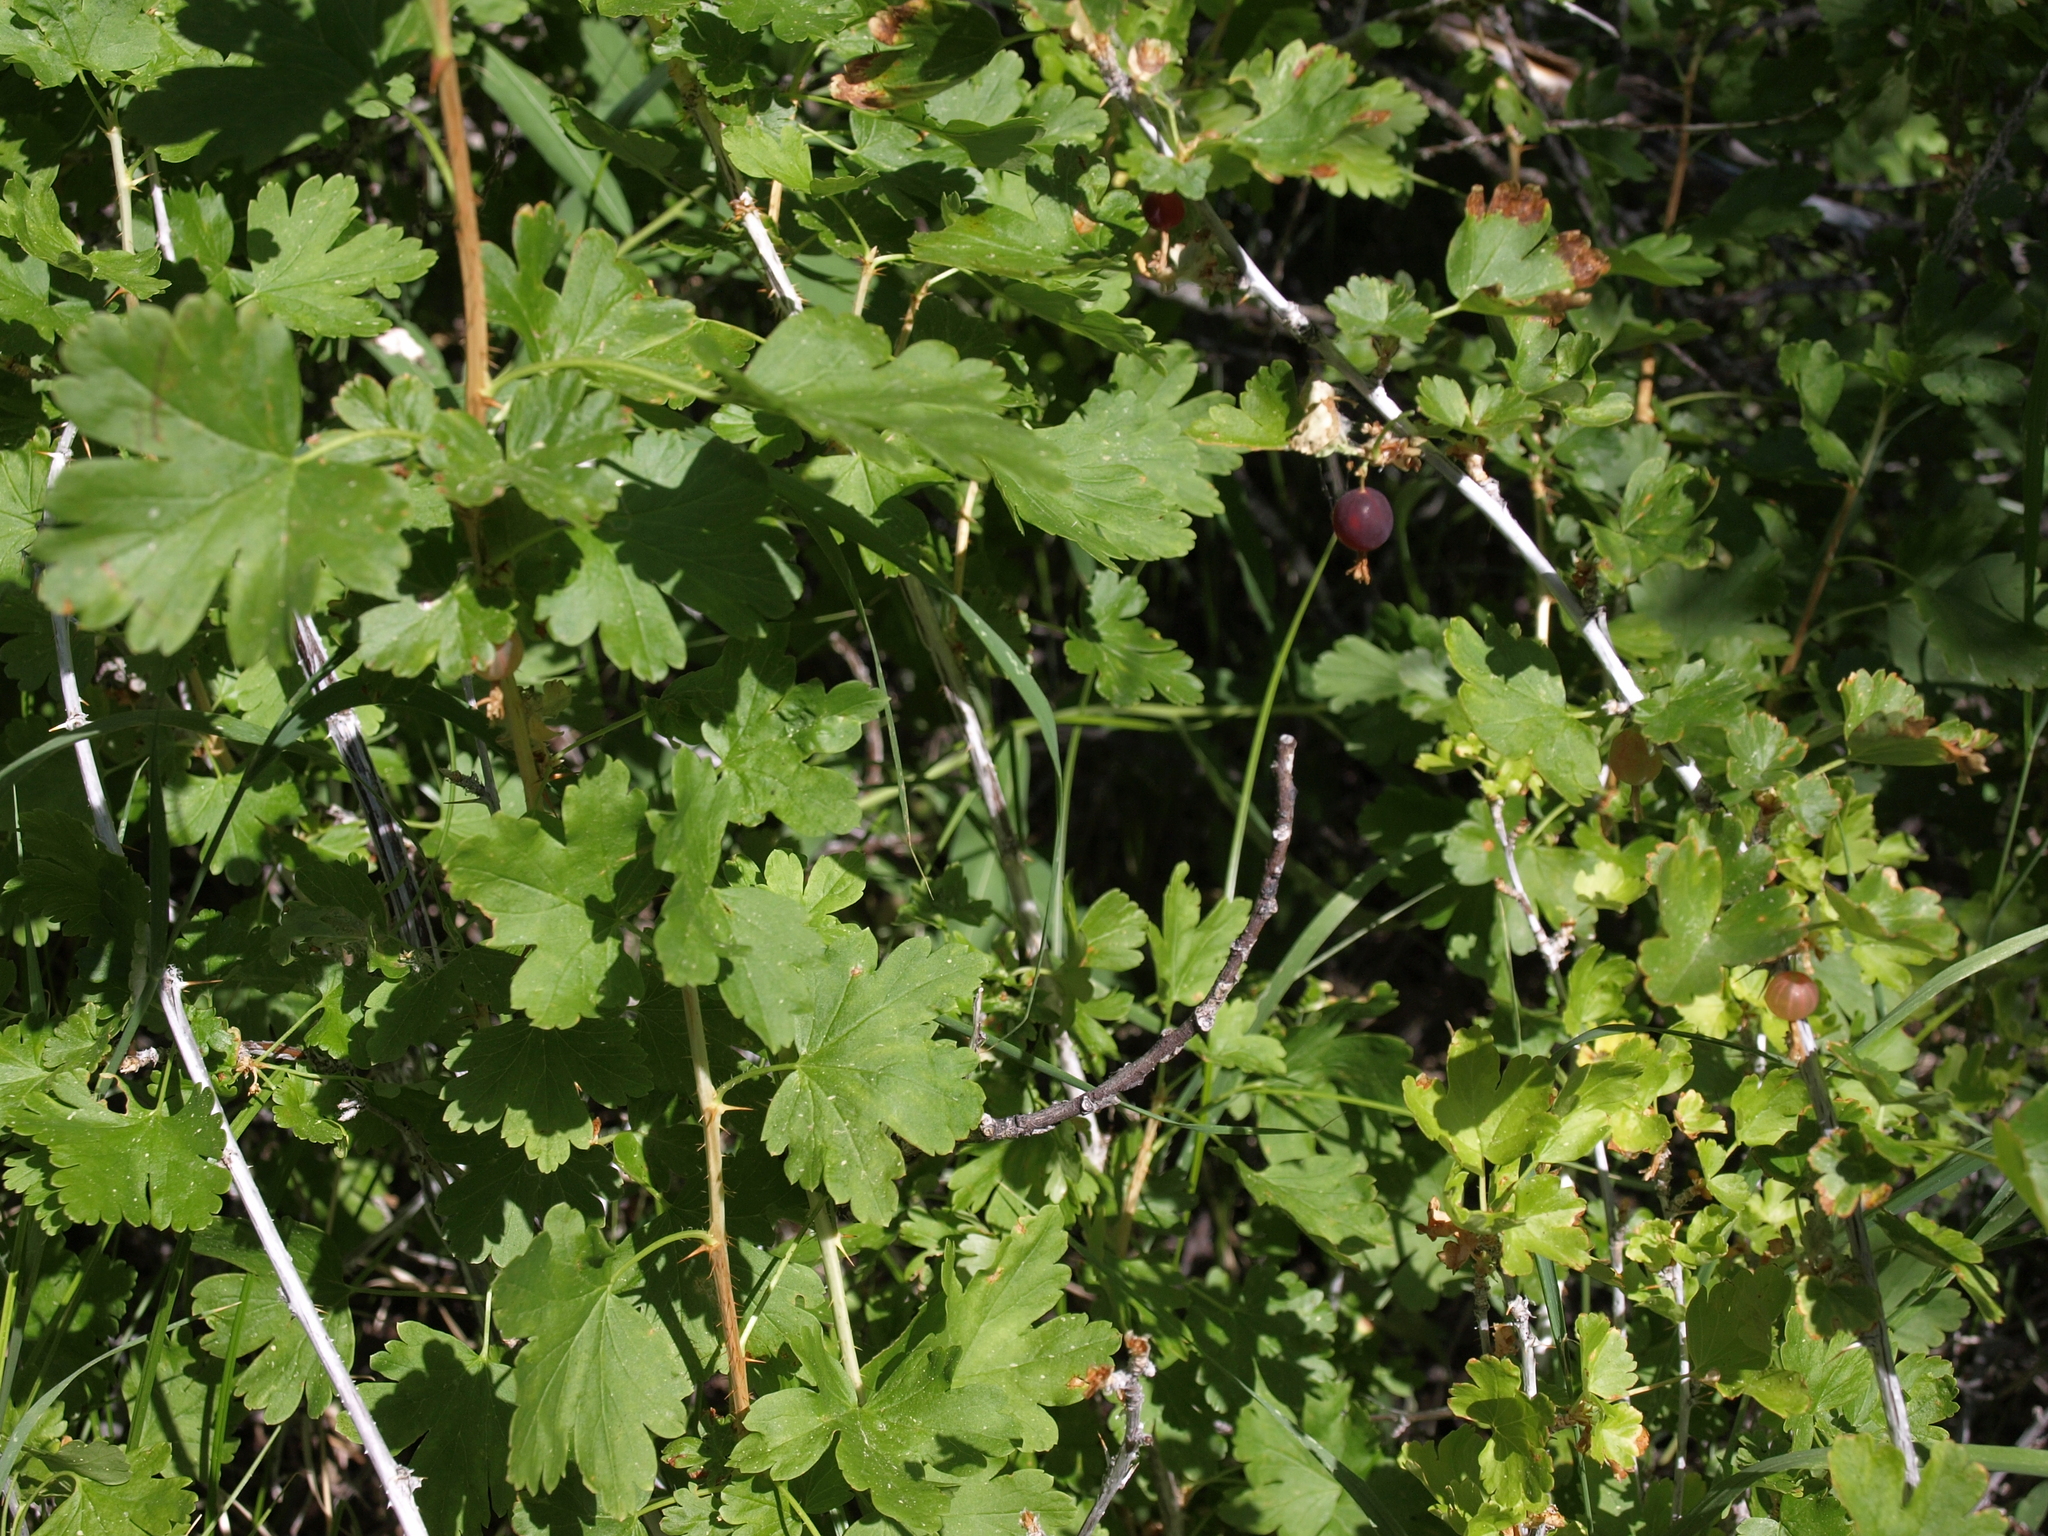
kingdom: Plantae
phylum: Tracheophyta
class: Magnoliopsida
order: Saxifragales
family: Grossulariaceae
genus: Ribes
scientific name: Ribes inerme
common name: White-stem gooseberry
